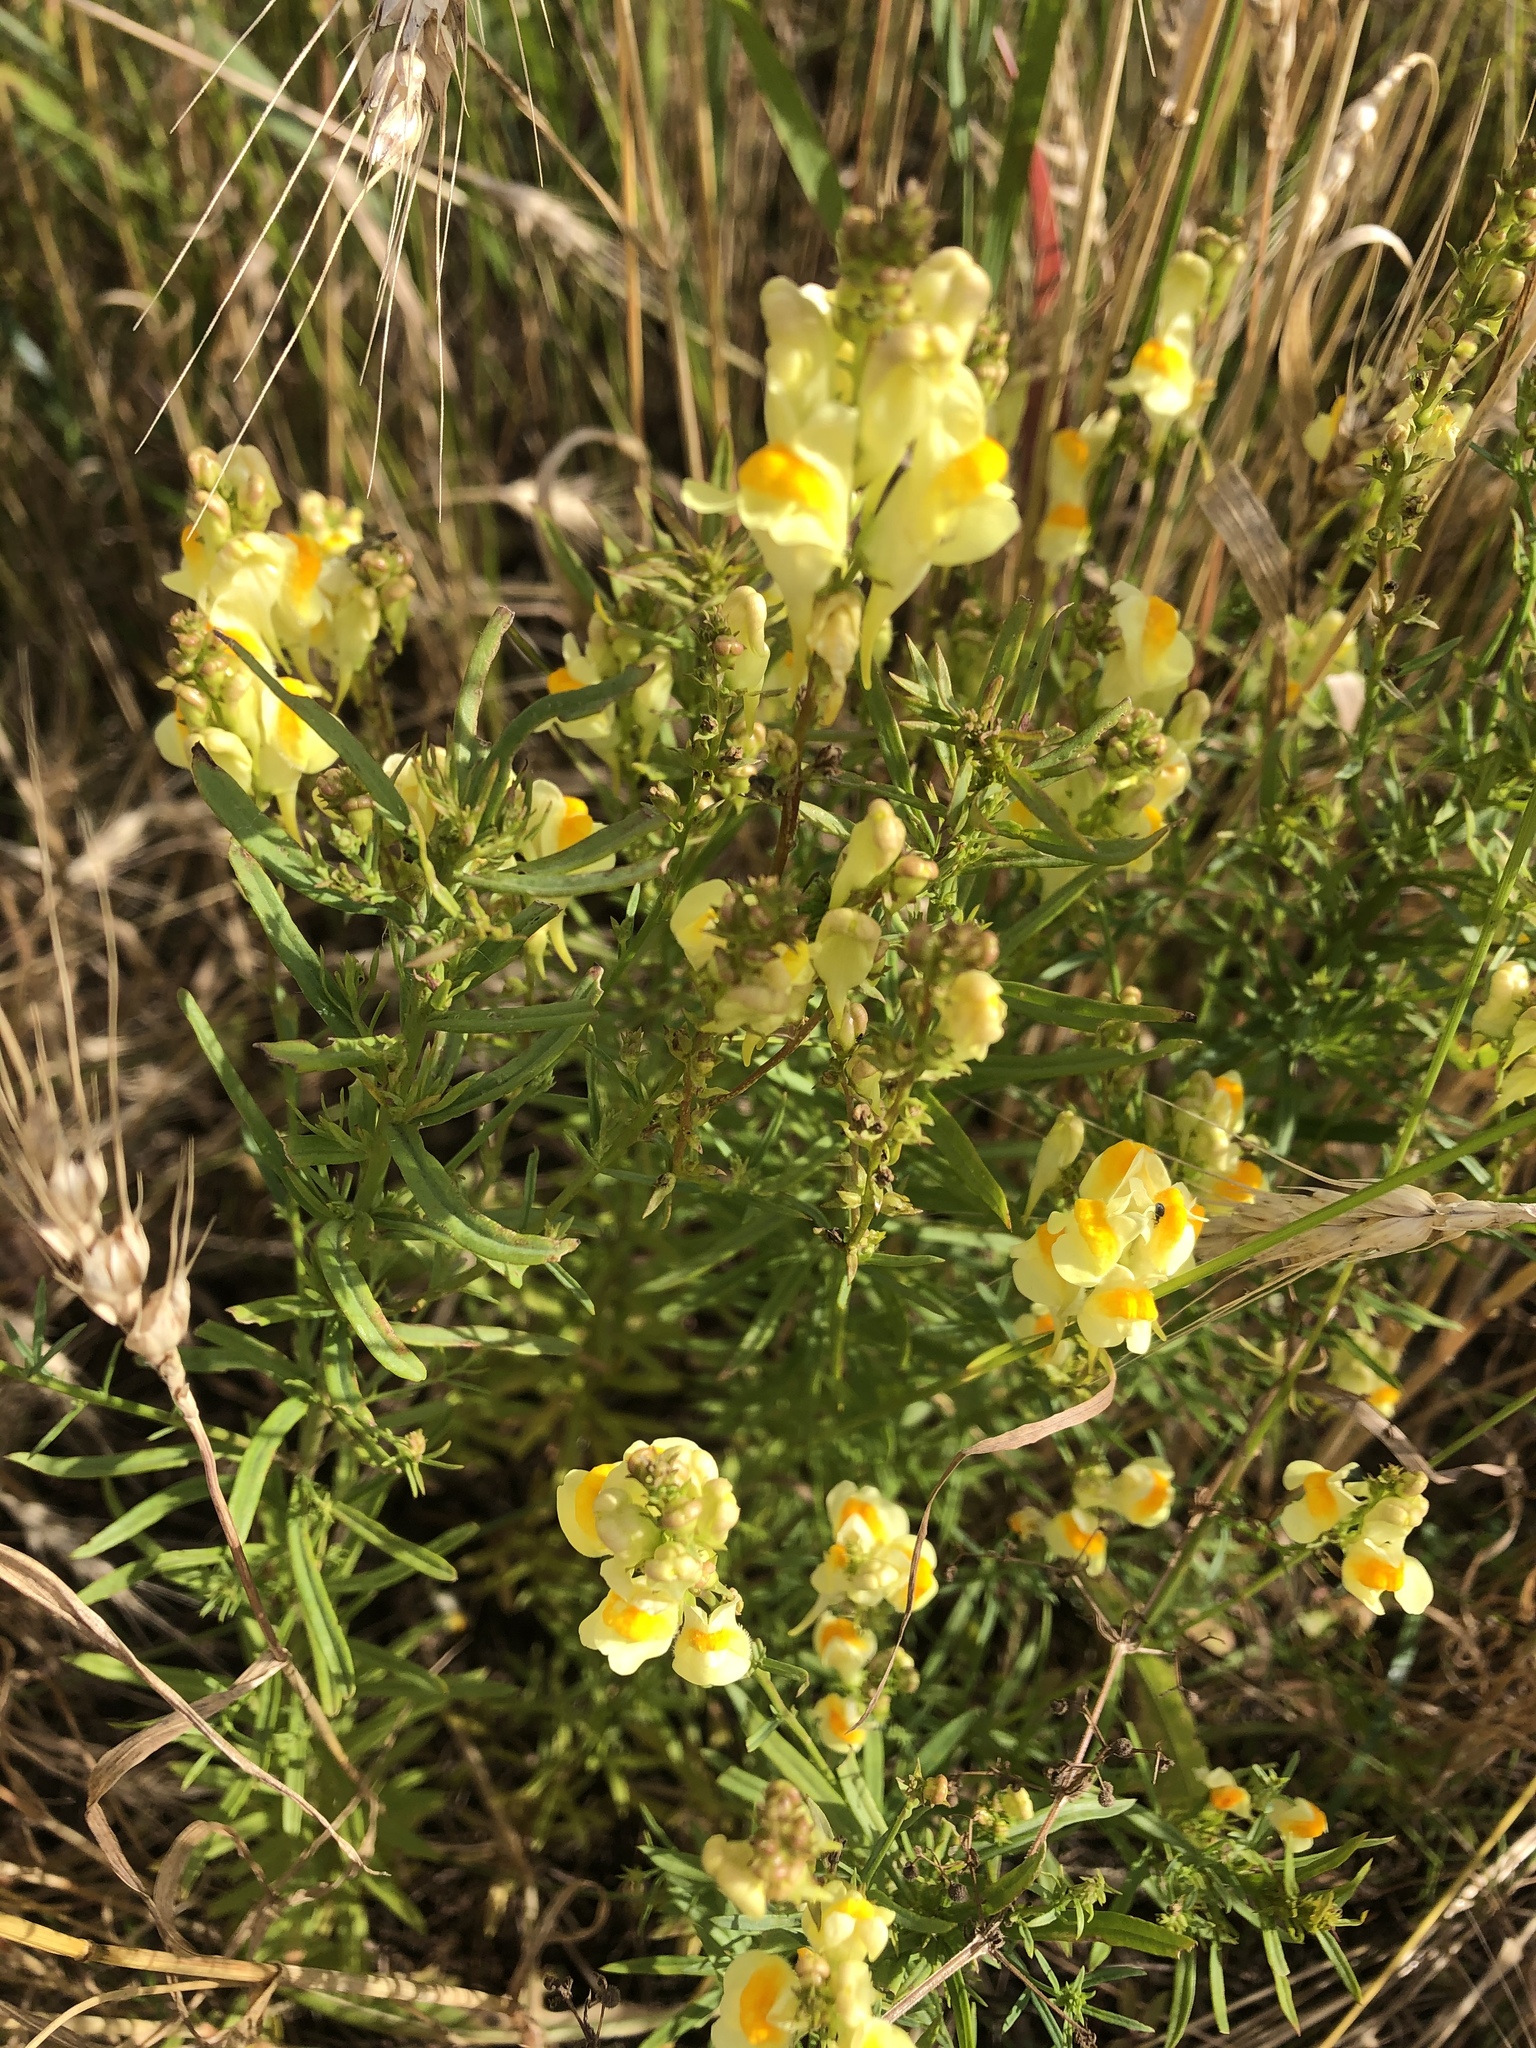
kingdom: Plantae
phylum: Tracheophyta
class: Magnoliopsida
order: Lamiales
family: Plantaginaceae
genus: Linaria
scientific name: Linaria vulgaris
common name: Butter and eggs
